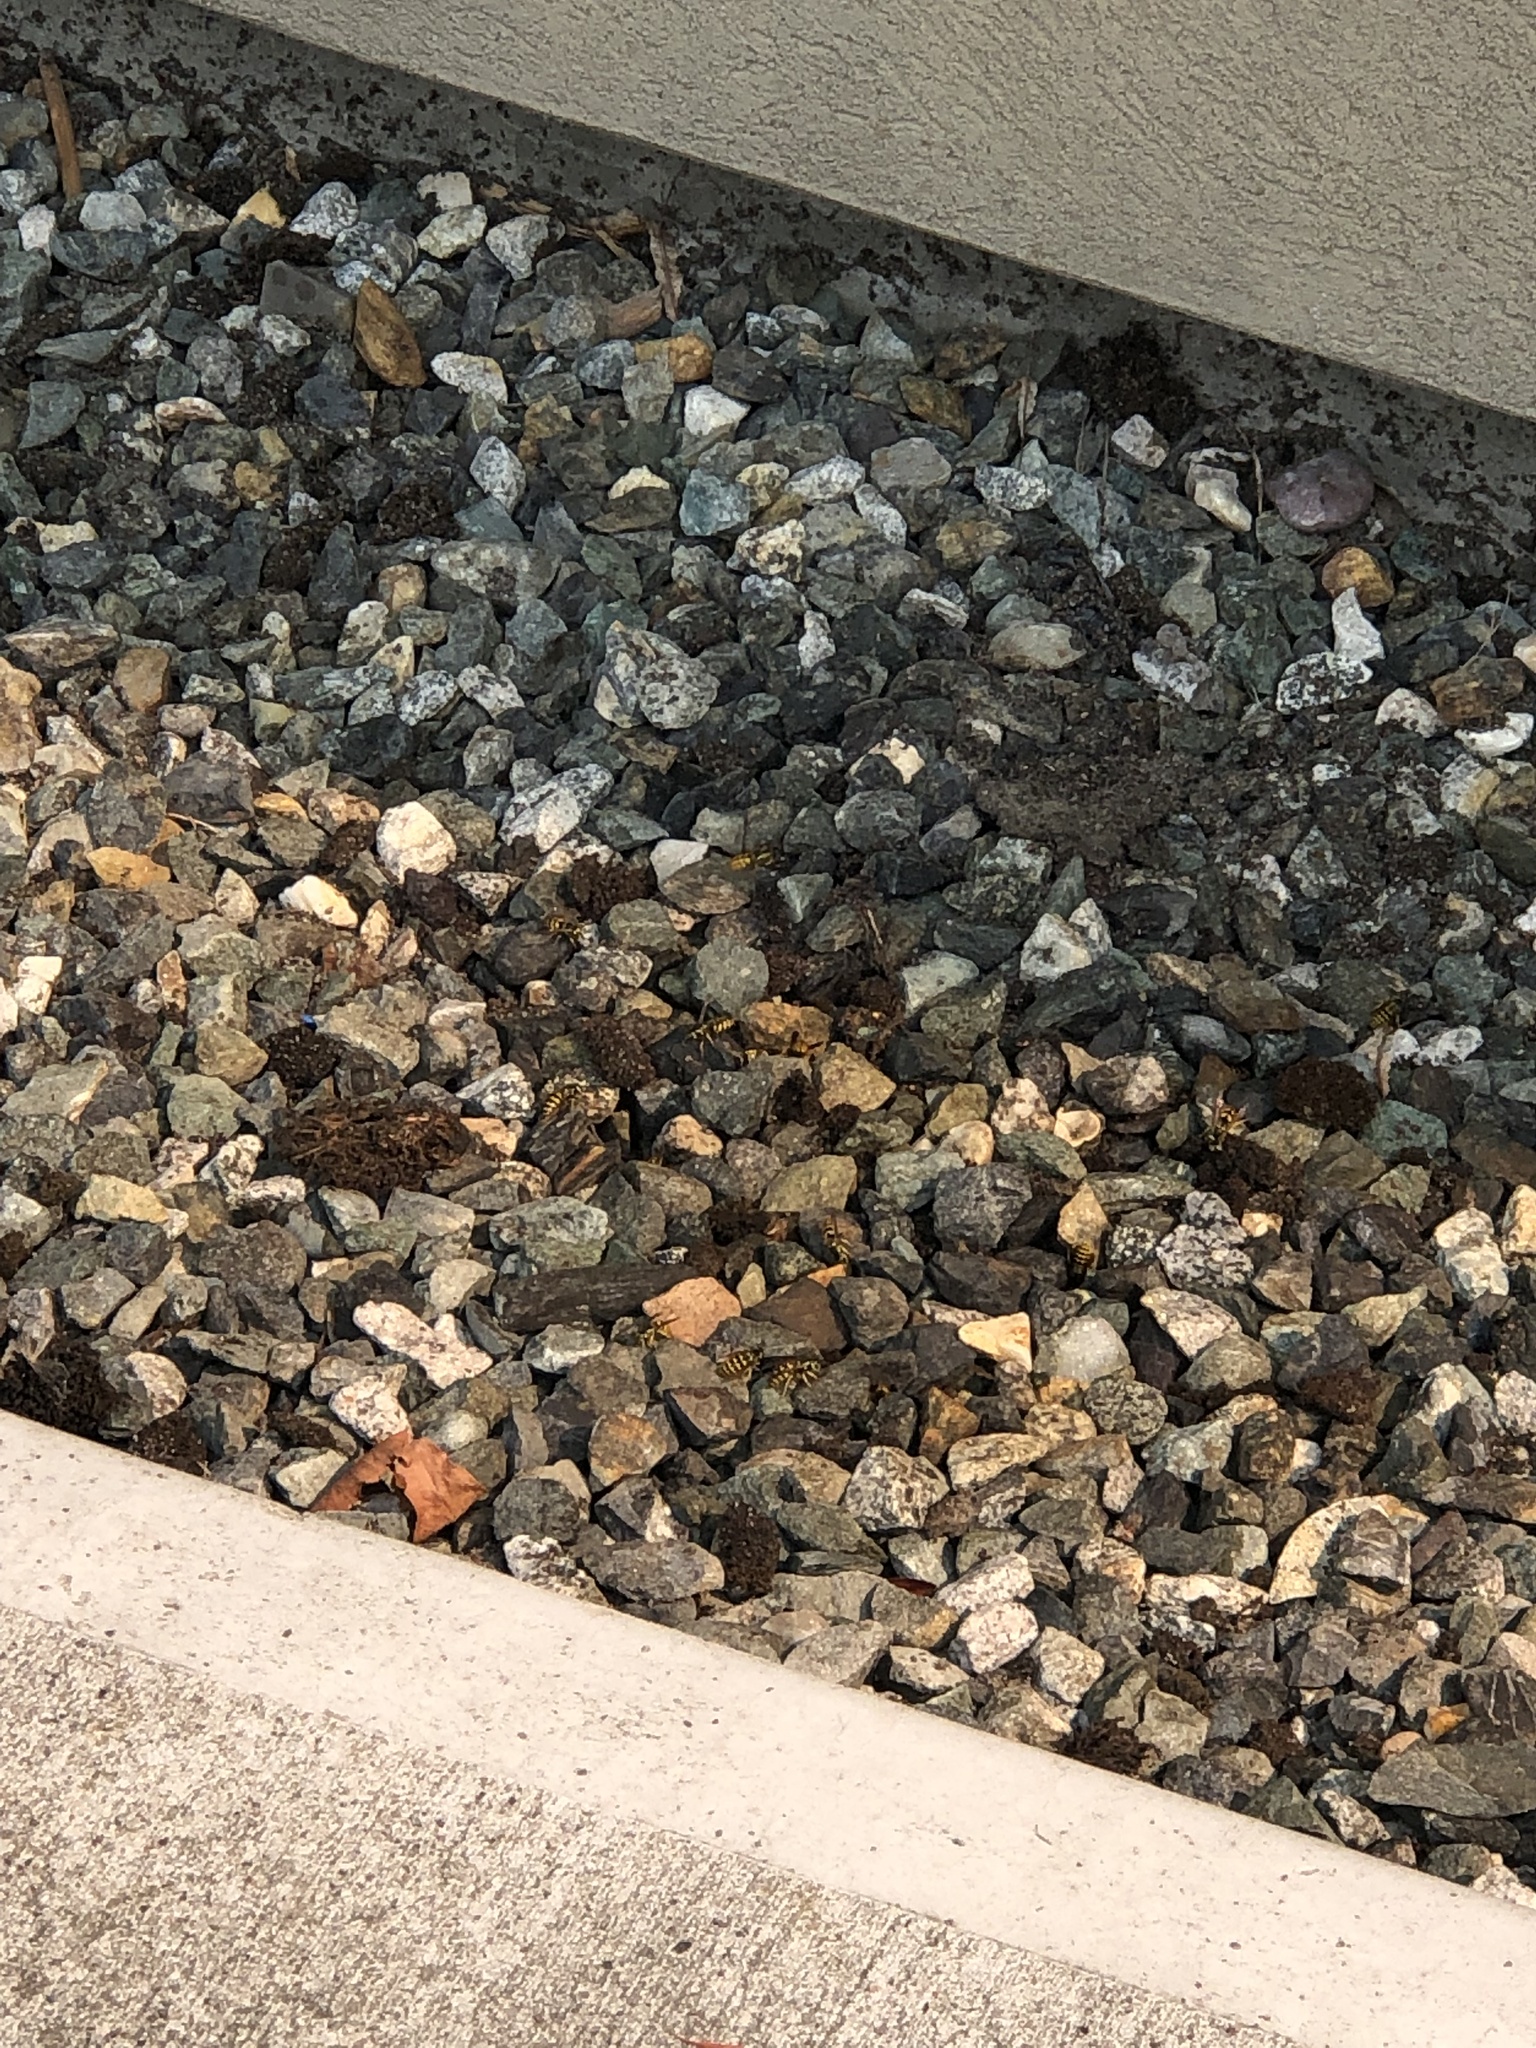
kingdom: Animalia
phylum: Arthropoda
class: Insecta
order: Hymenoptera
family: Vespidae
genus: Vespula
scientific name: Vespula
